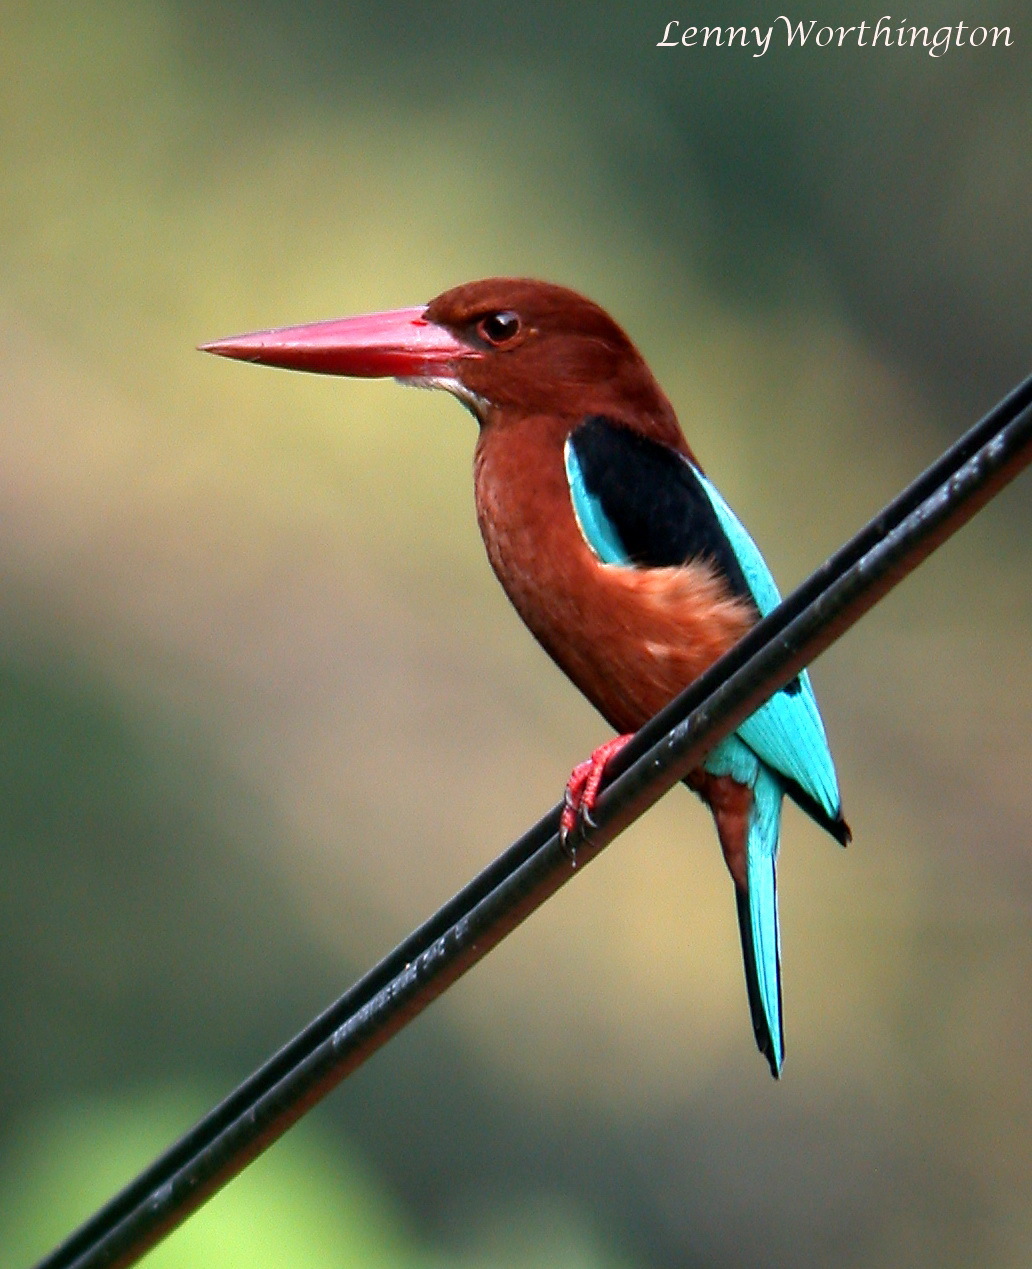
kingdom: Animalia
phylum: Chordata
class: Aves
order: Coraciiformes
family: Alcedinidae
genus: Halcyon
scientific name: Halcyon gularis
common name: Brown-breasted kingfisher
